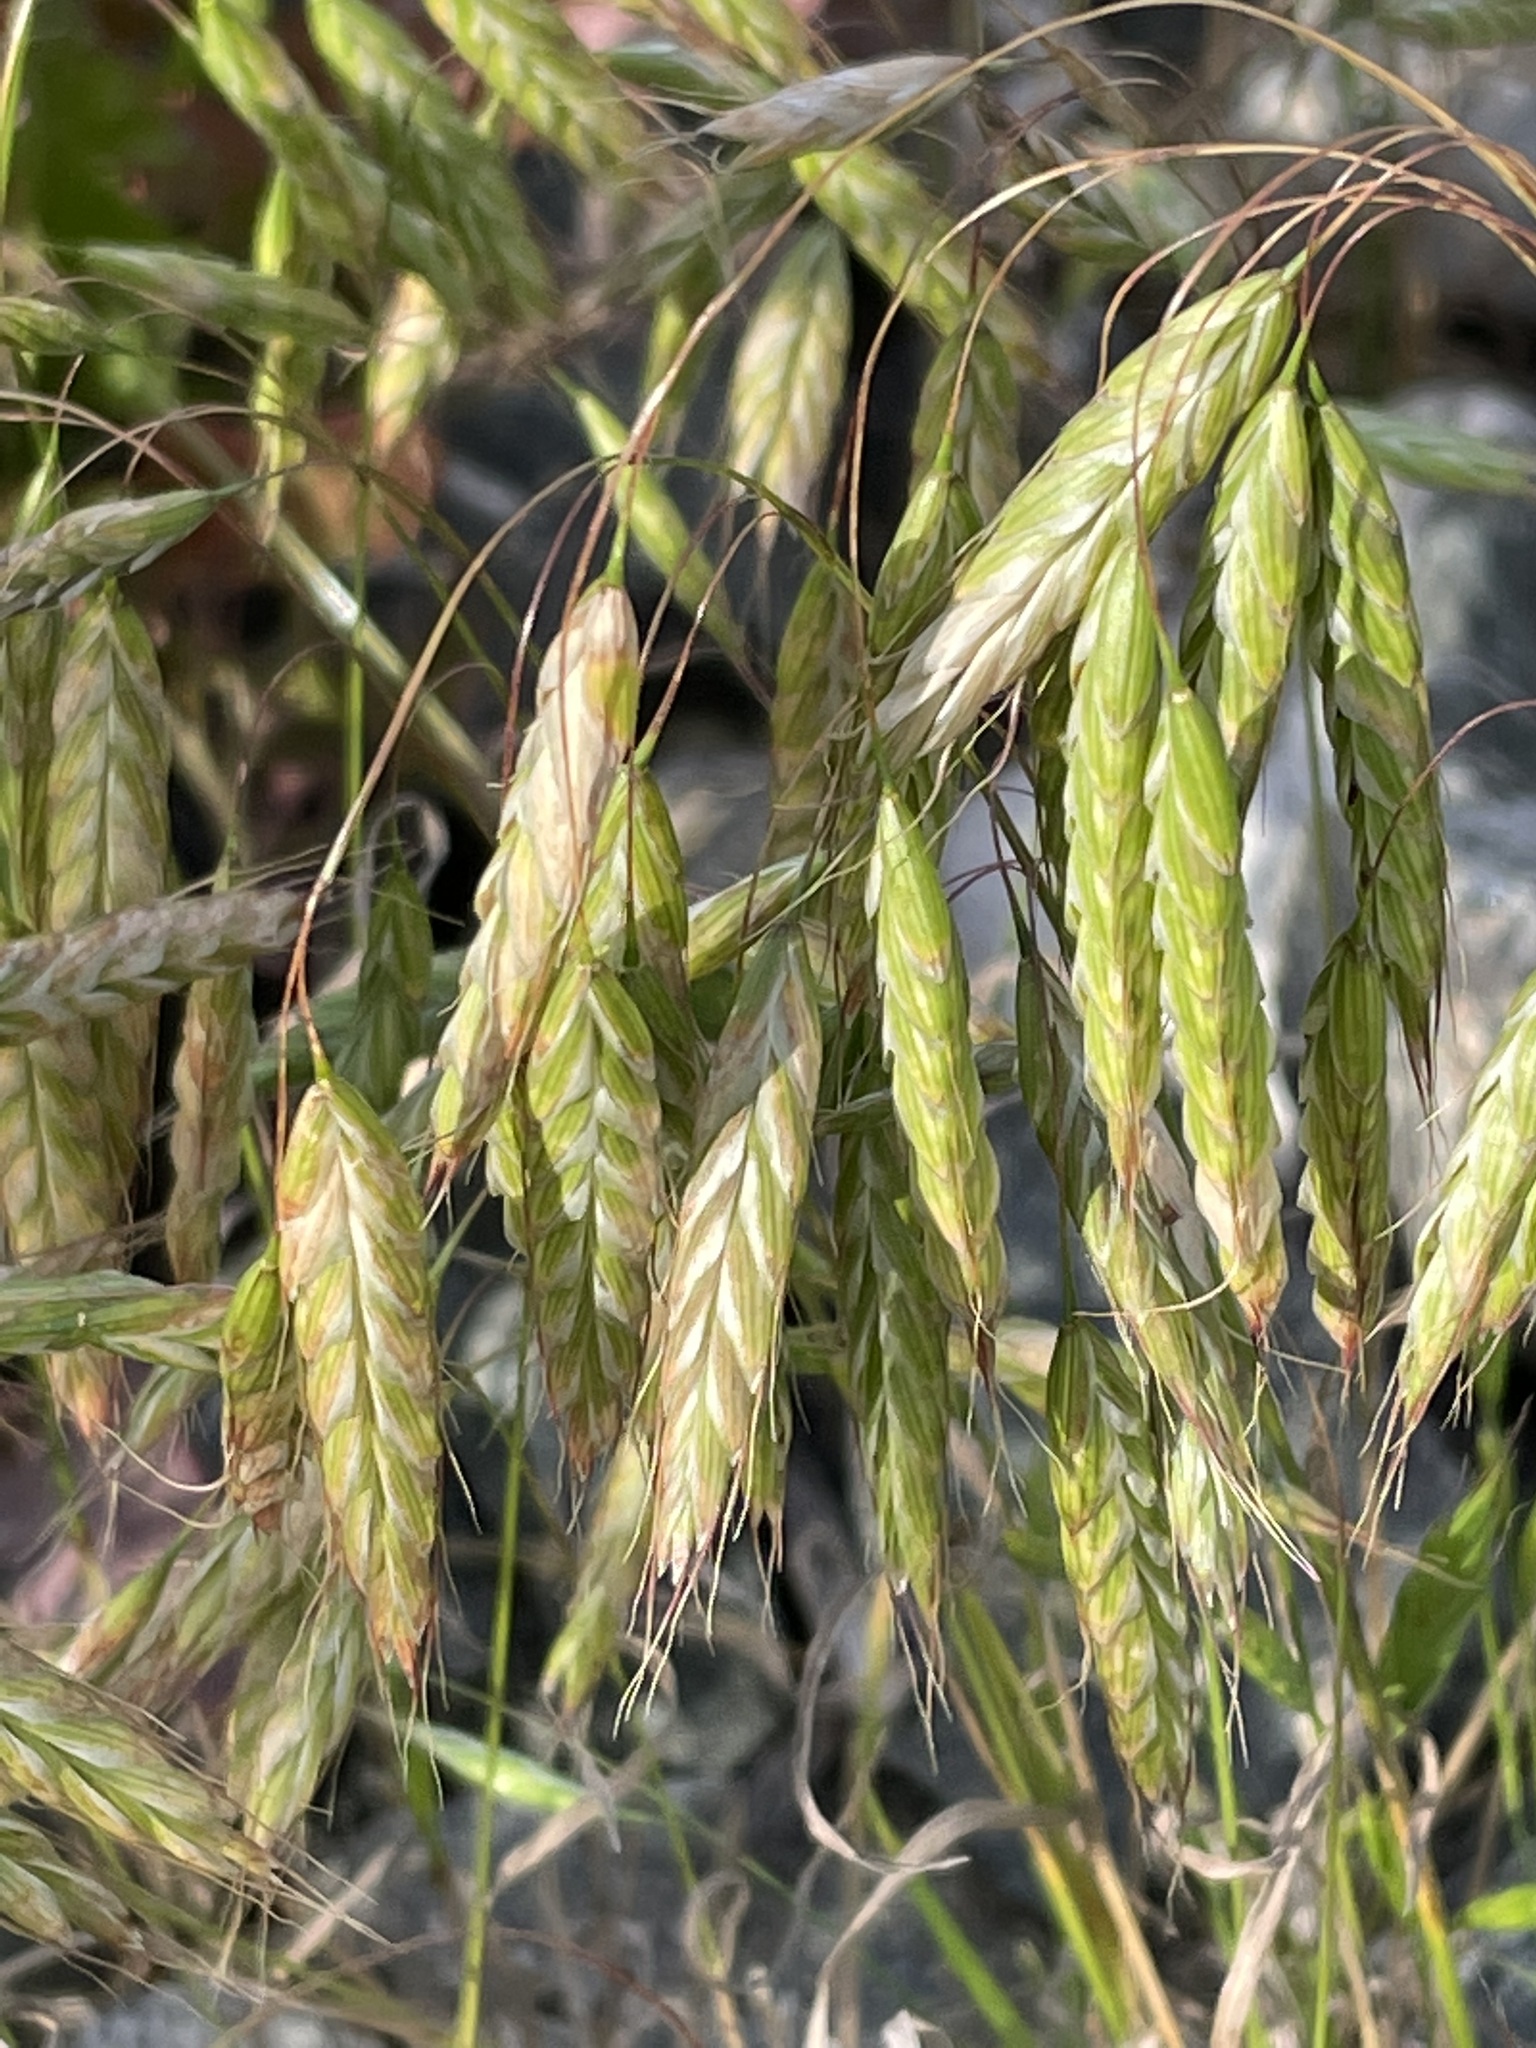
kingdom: Plantae
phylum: Tracheophyta
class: Liliopsida
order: Poales
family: Poaceae
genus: Bromus
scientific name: Bromus squarrosus
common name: Corn brome
